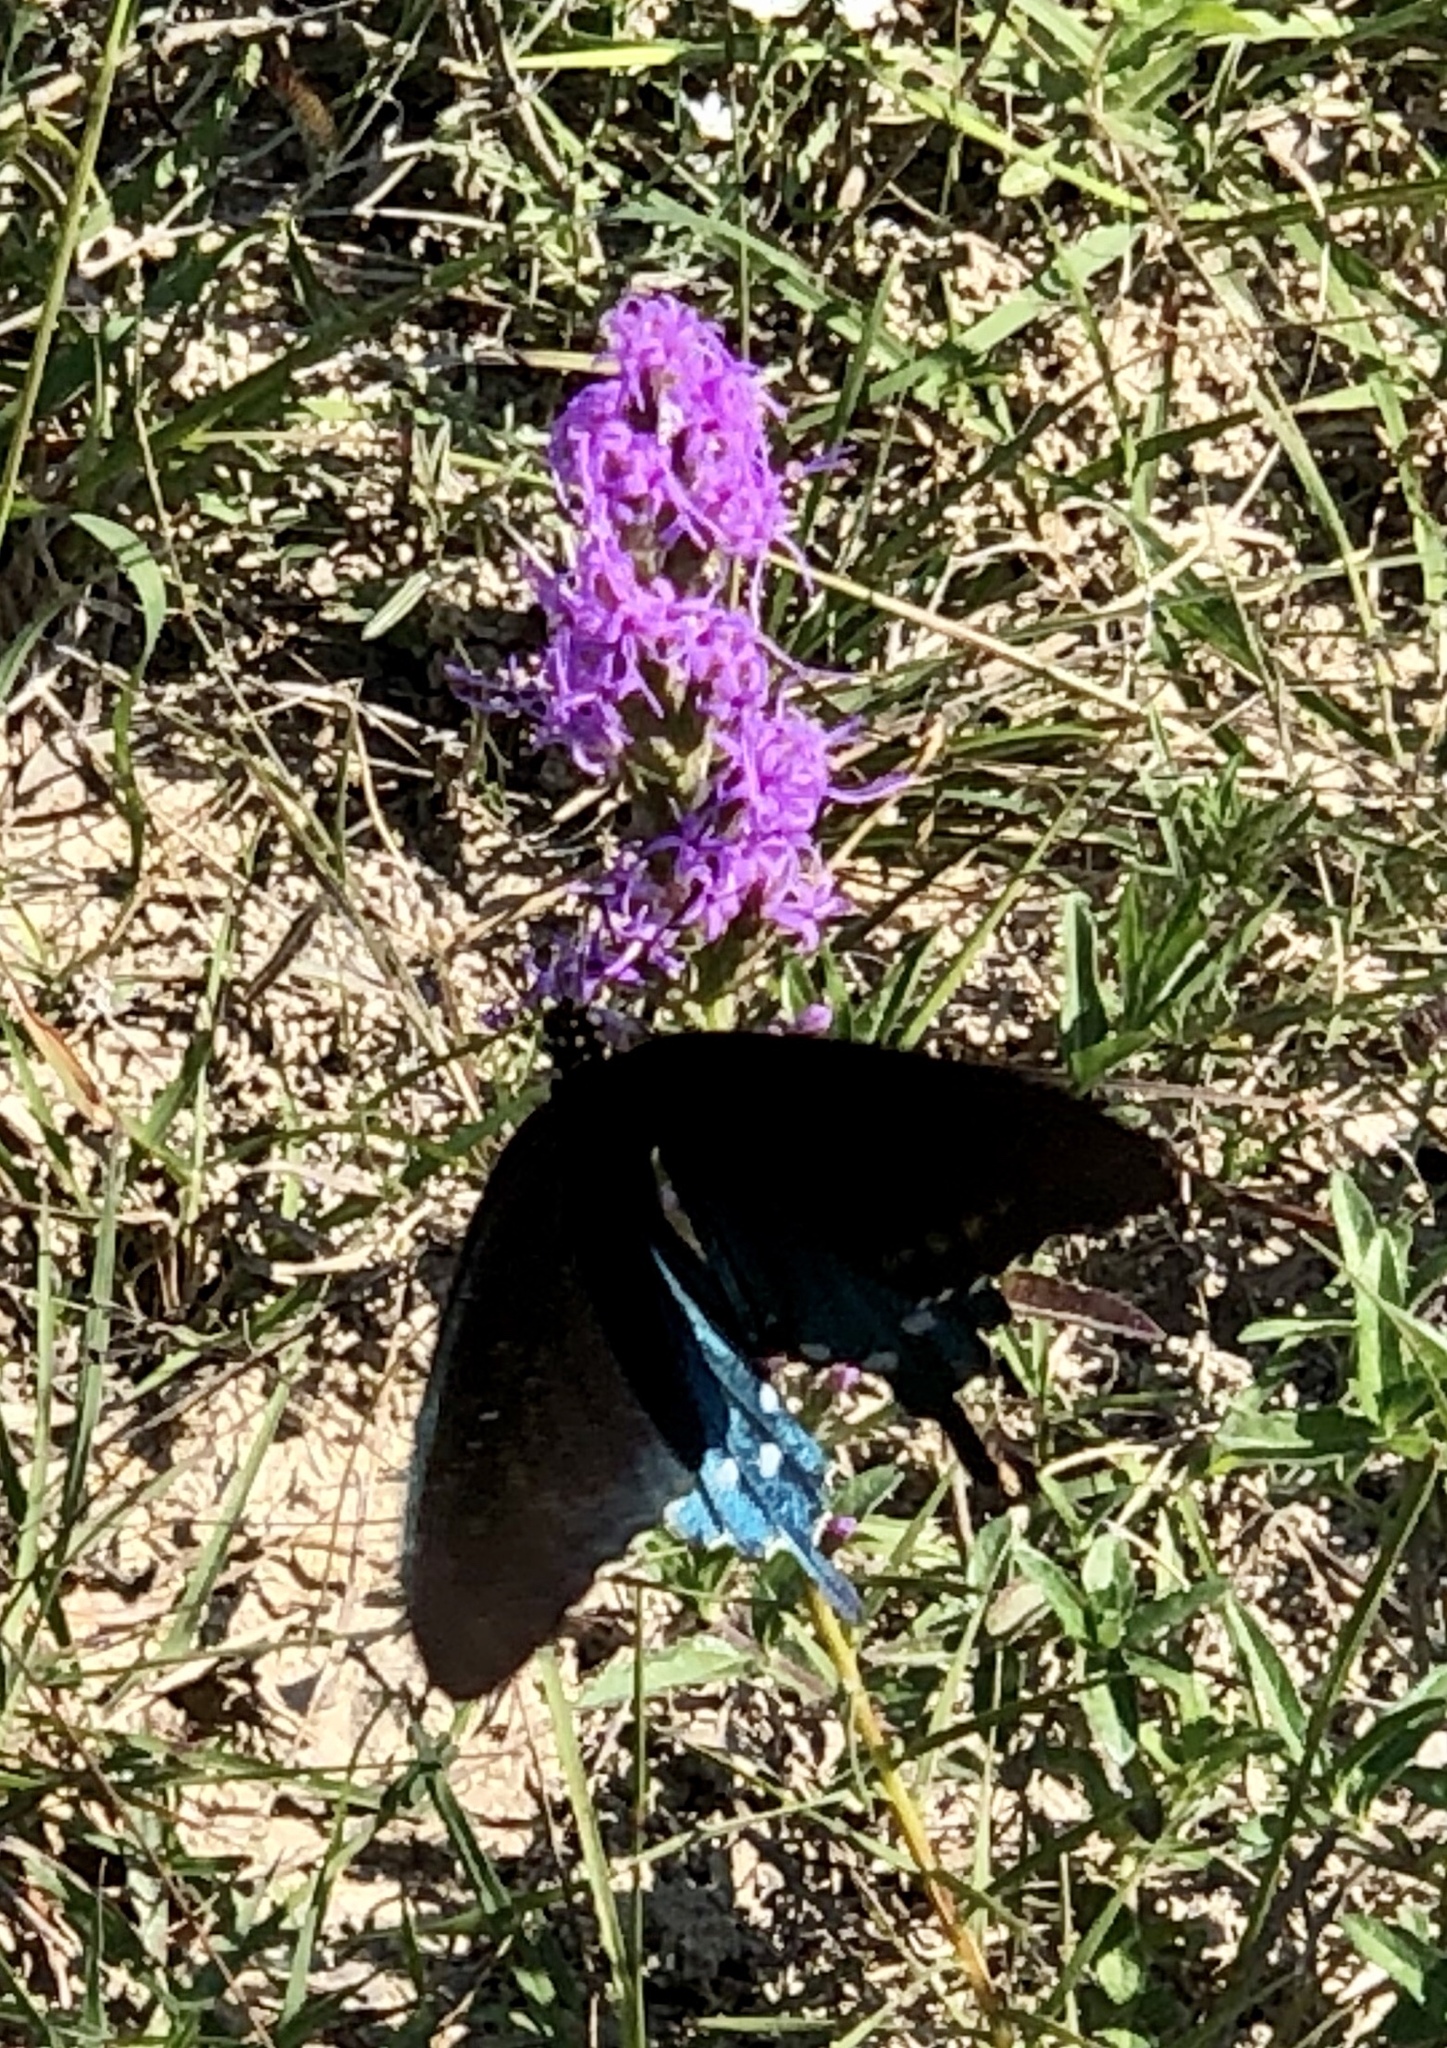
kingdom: Animalia
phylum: Arthropoda
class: Insecta
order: Lepidoptera
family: Papilionidae
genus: Battus
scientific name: Battus philenor
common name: Pipevine swallowtail
